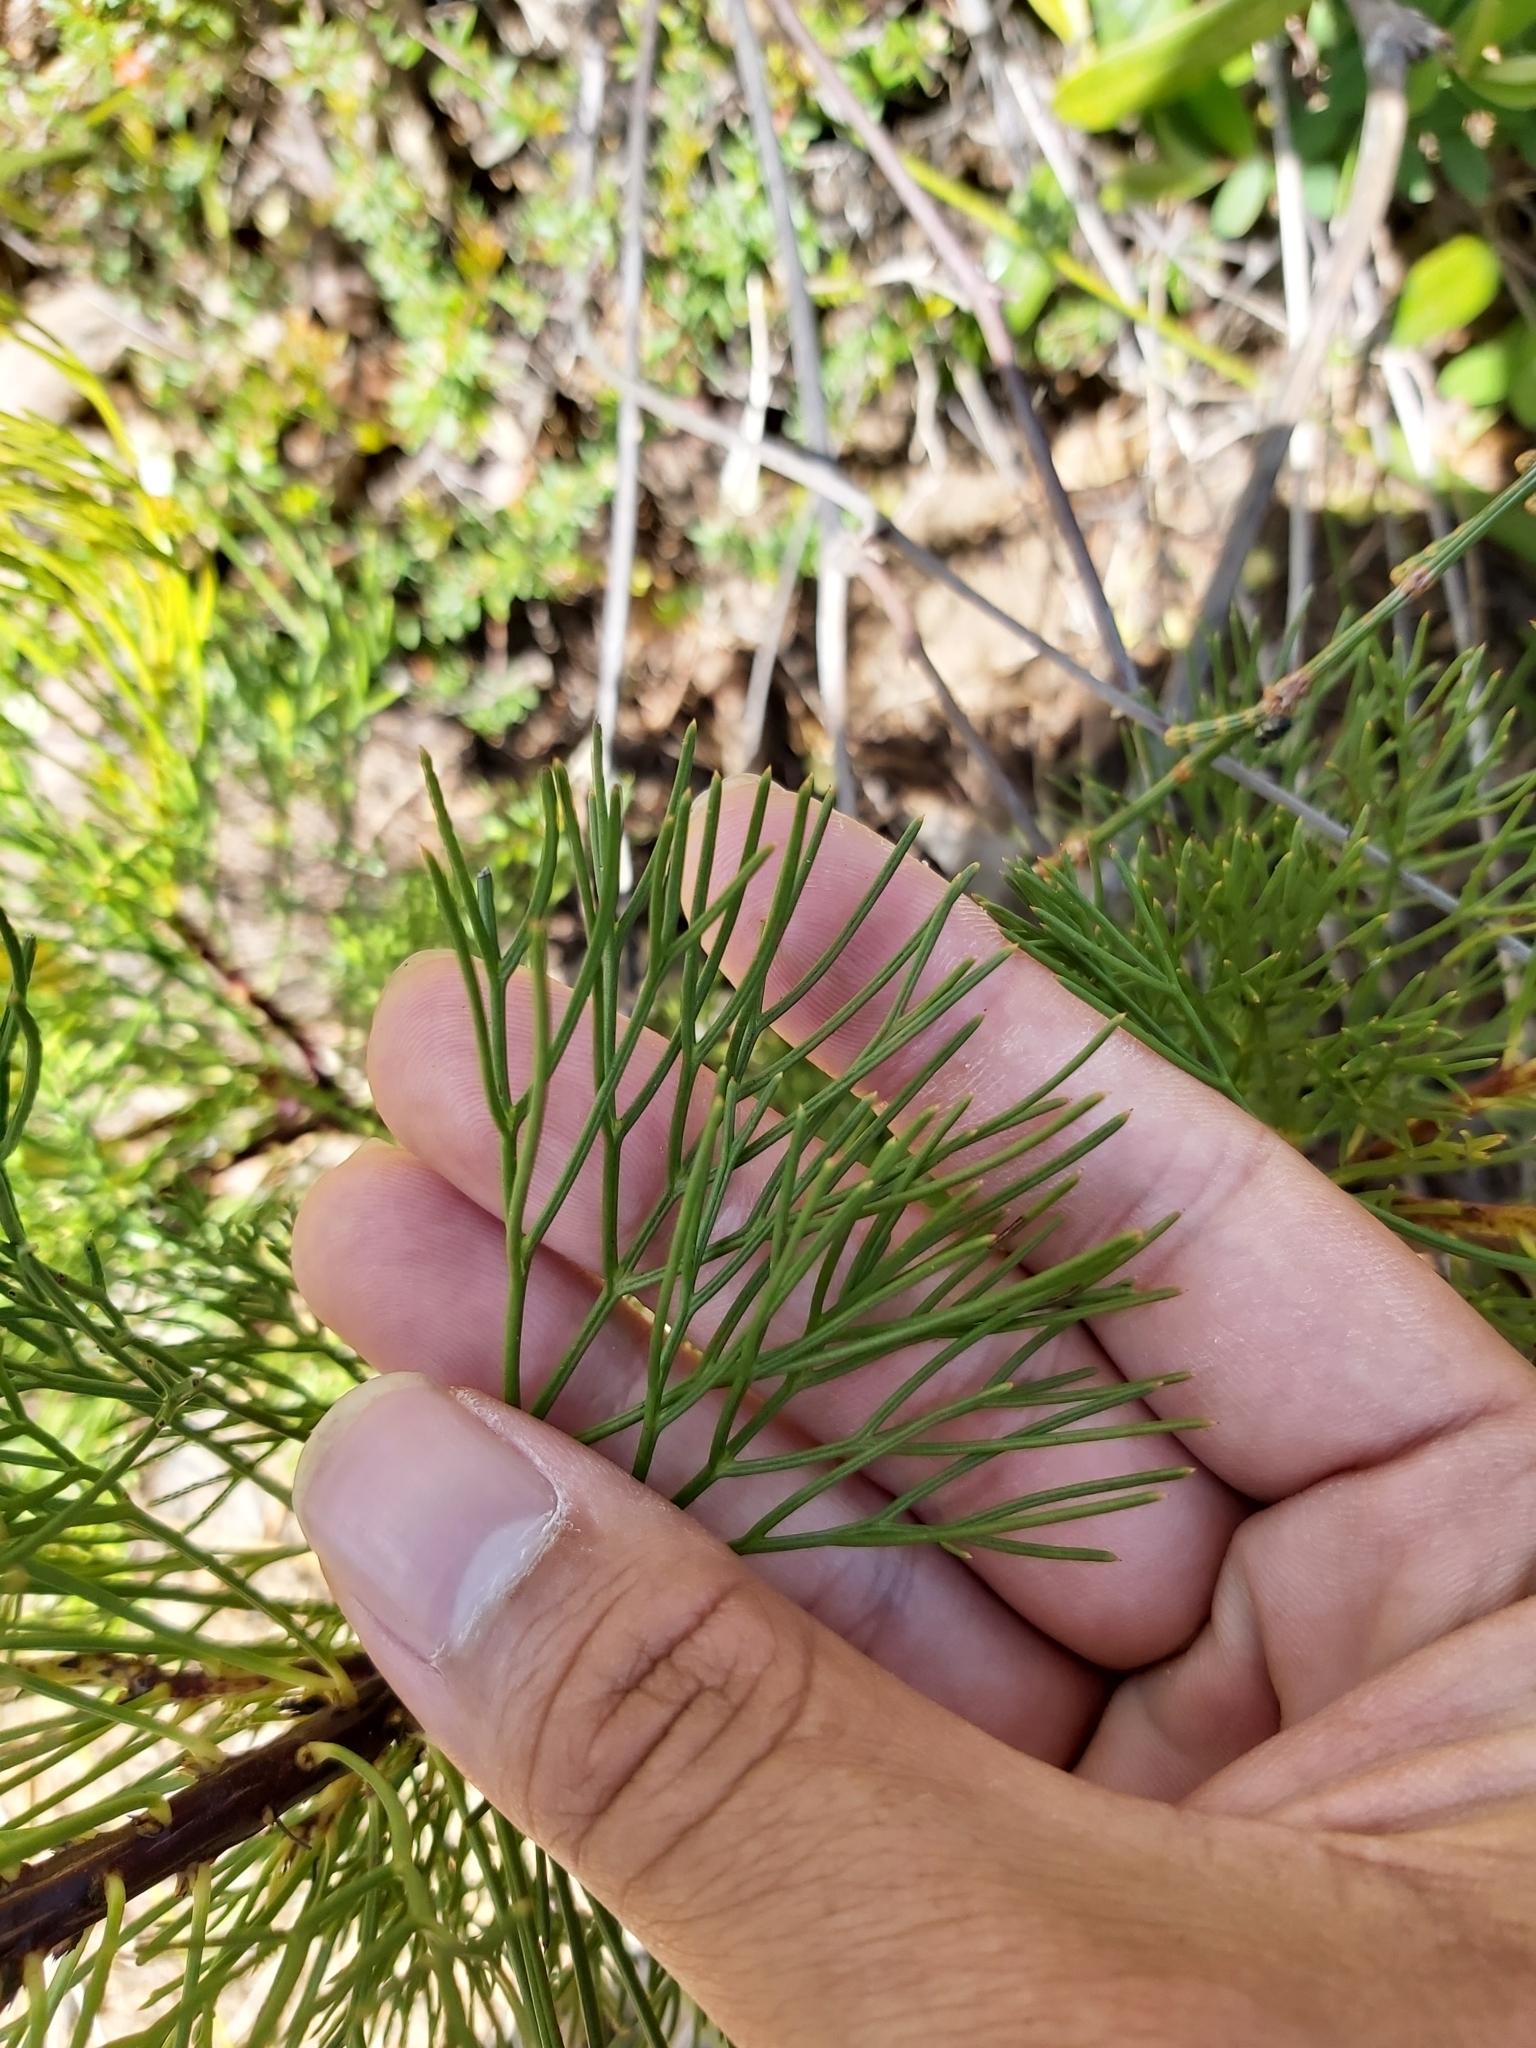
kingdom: Plantae
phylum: Tracheophyta
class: Magnoliopsida
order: Proteales
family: Proteaceae
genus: Isopogon
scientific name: Isopogon anethifolius
